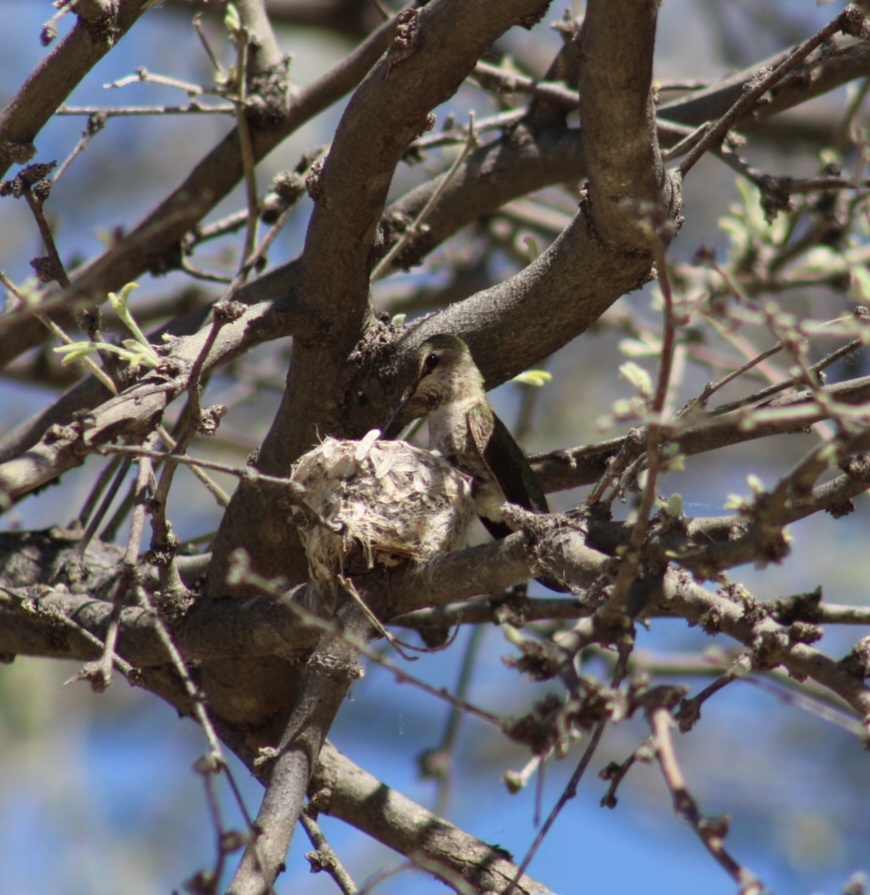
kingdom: Animalia
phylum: Chordata
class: Aves
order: Apodiformes
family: Trochilidae
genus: Calypte
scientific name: Calypte anna
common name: Anna's hummingbird
